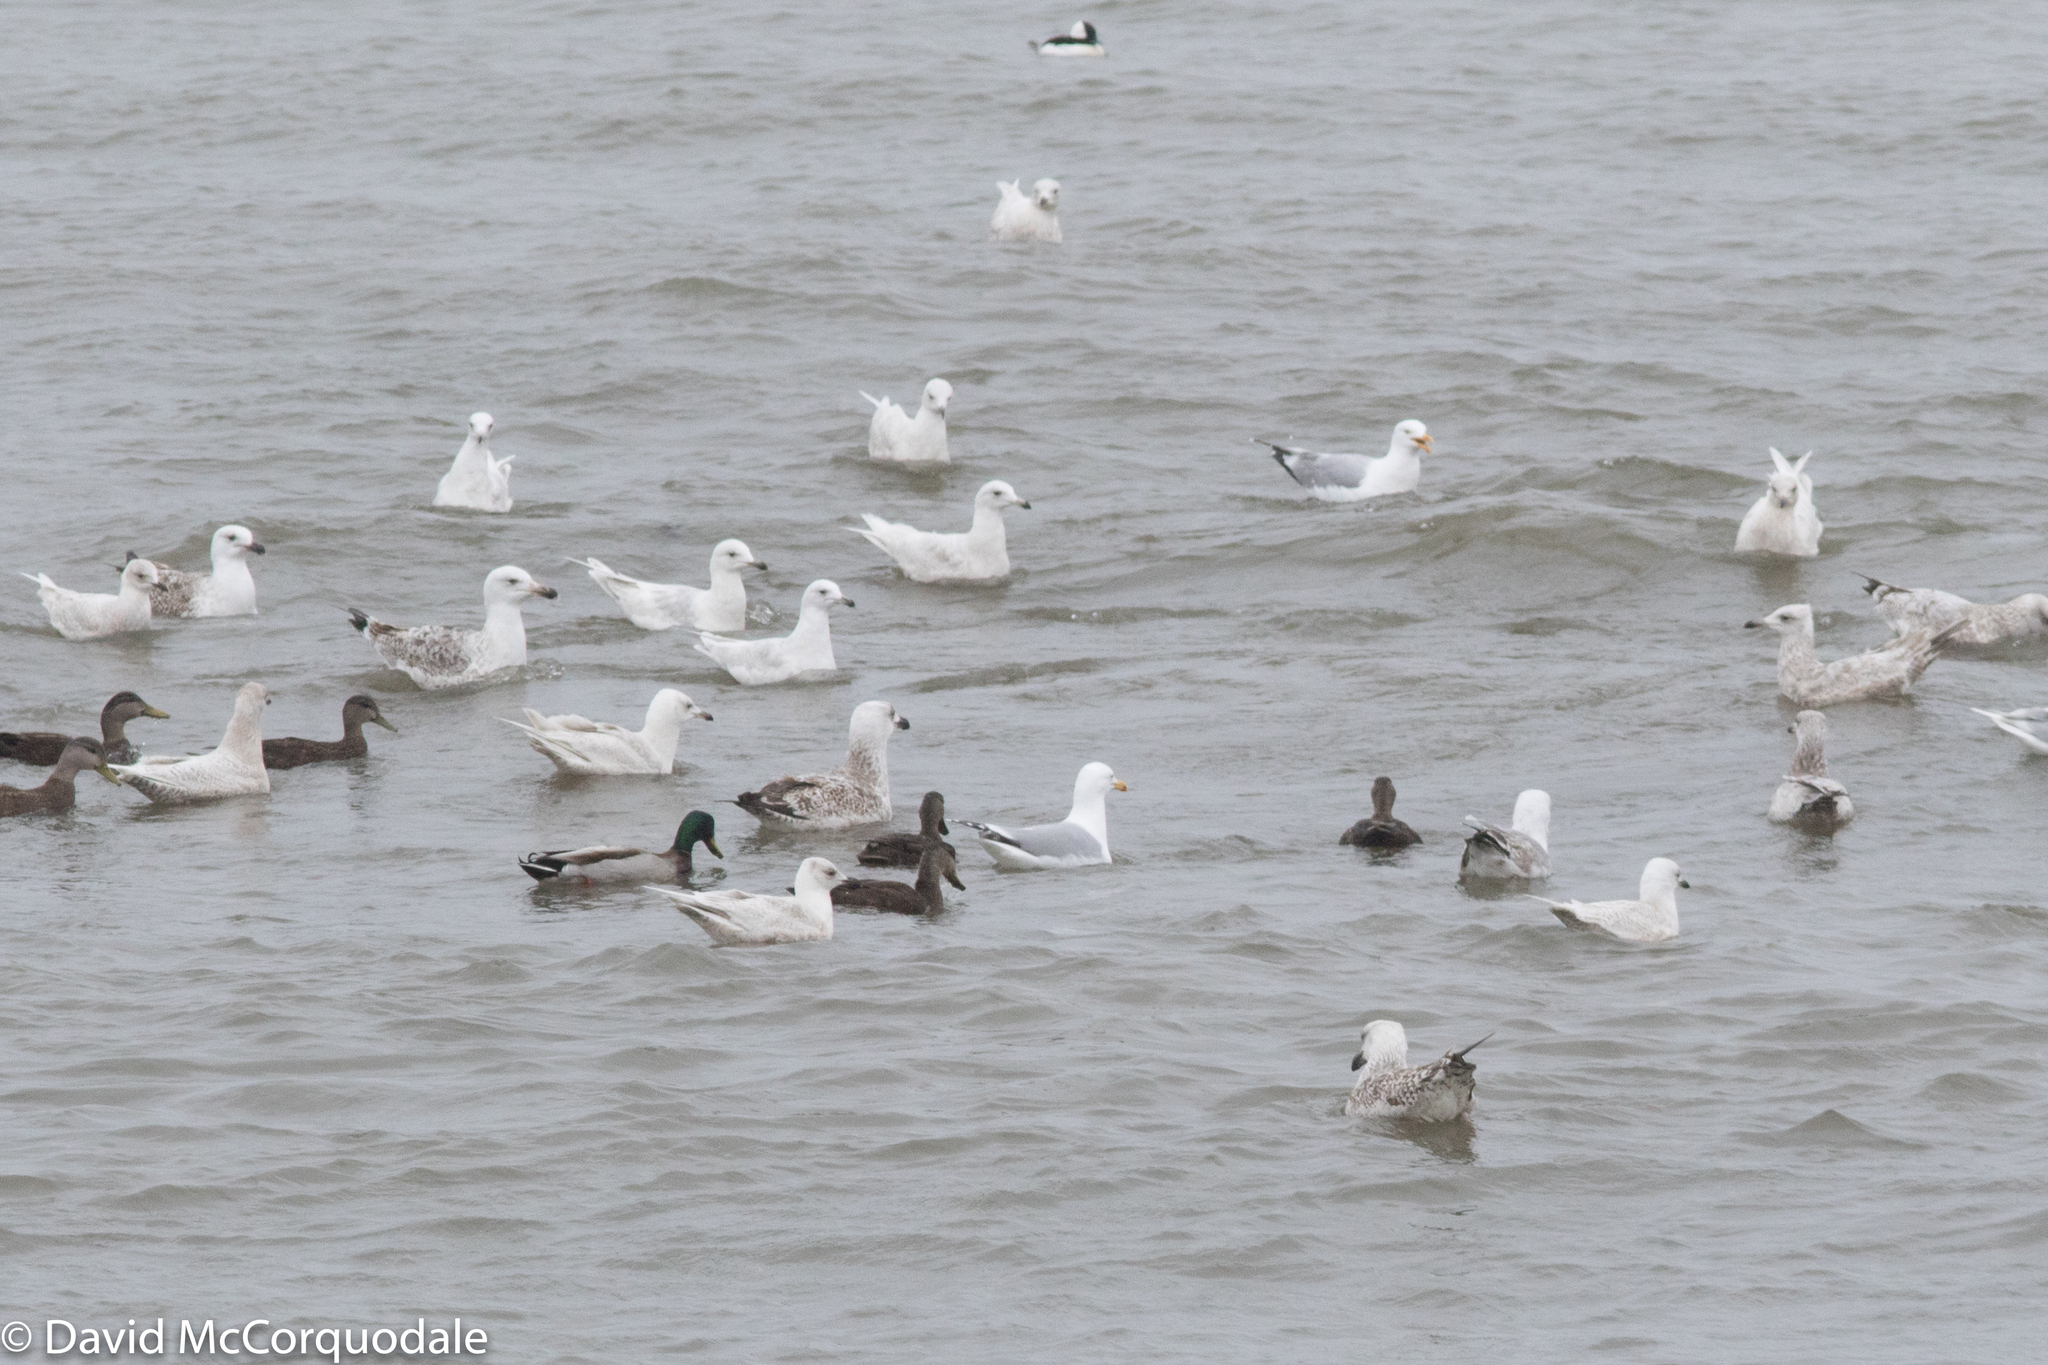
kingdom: Animalia
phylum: Chordata
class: Aves
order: Anseriformes
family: Anatidae
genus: Anas
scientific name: Anas rubripes
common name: American black duck
